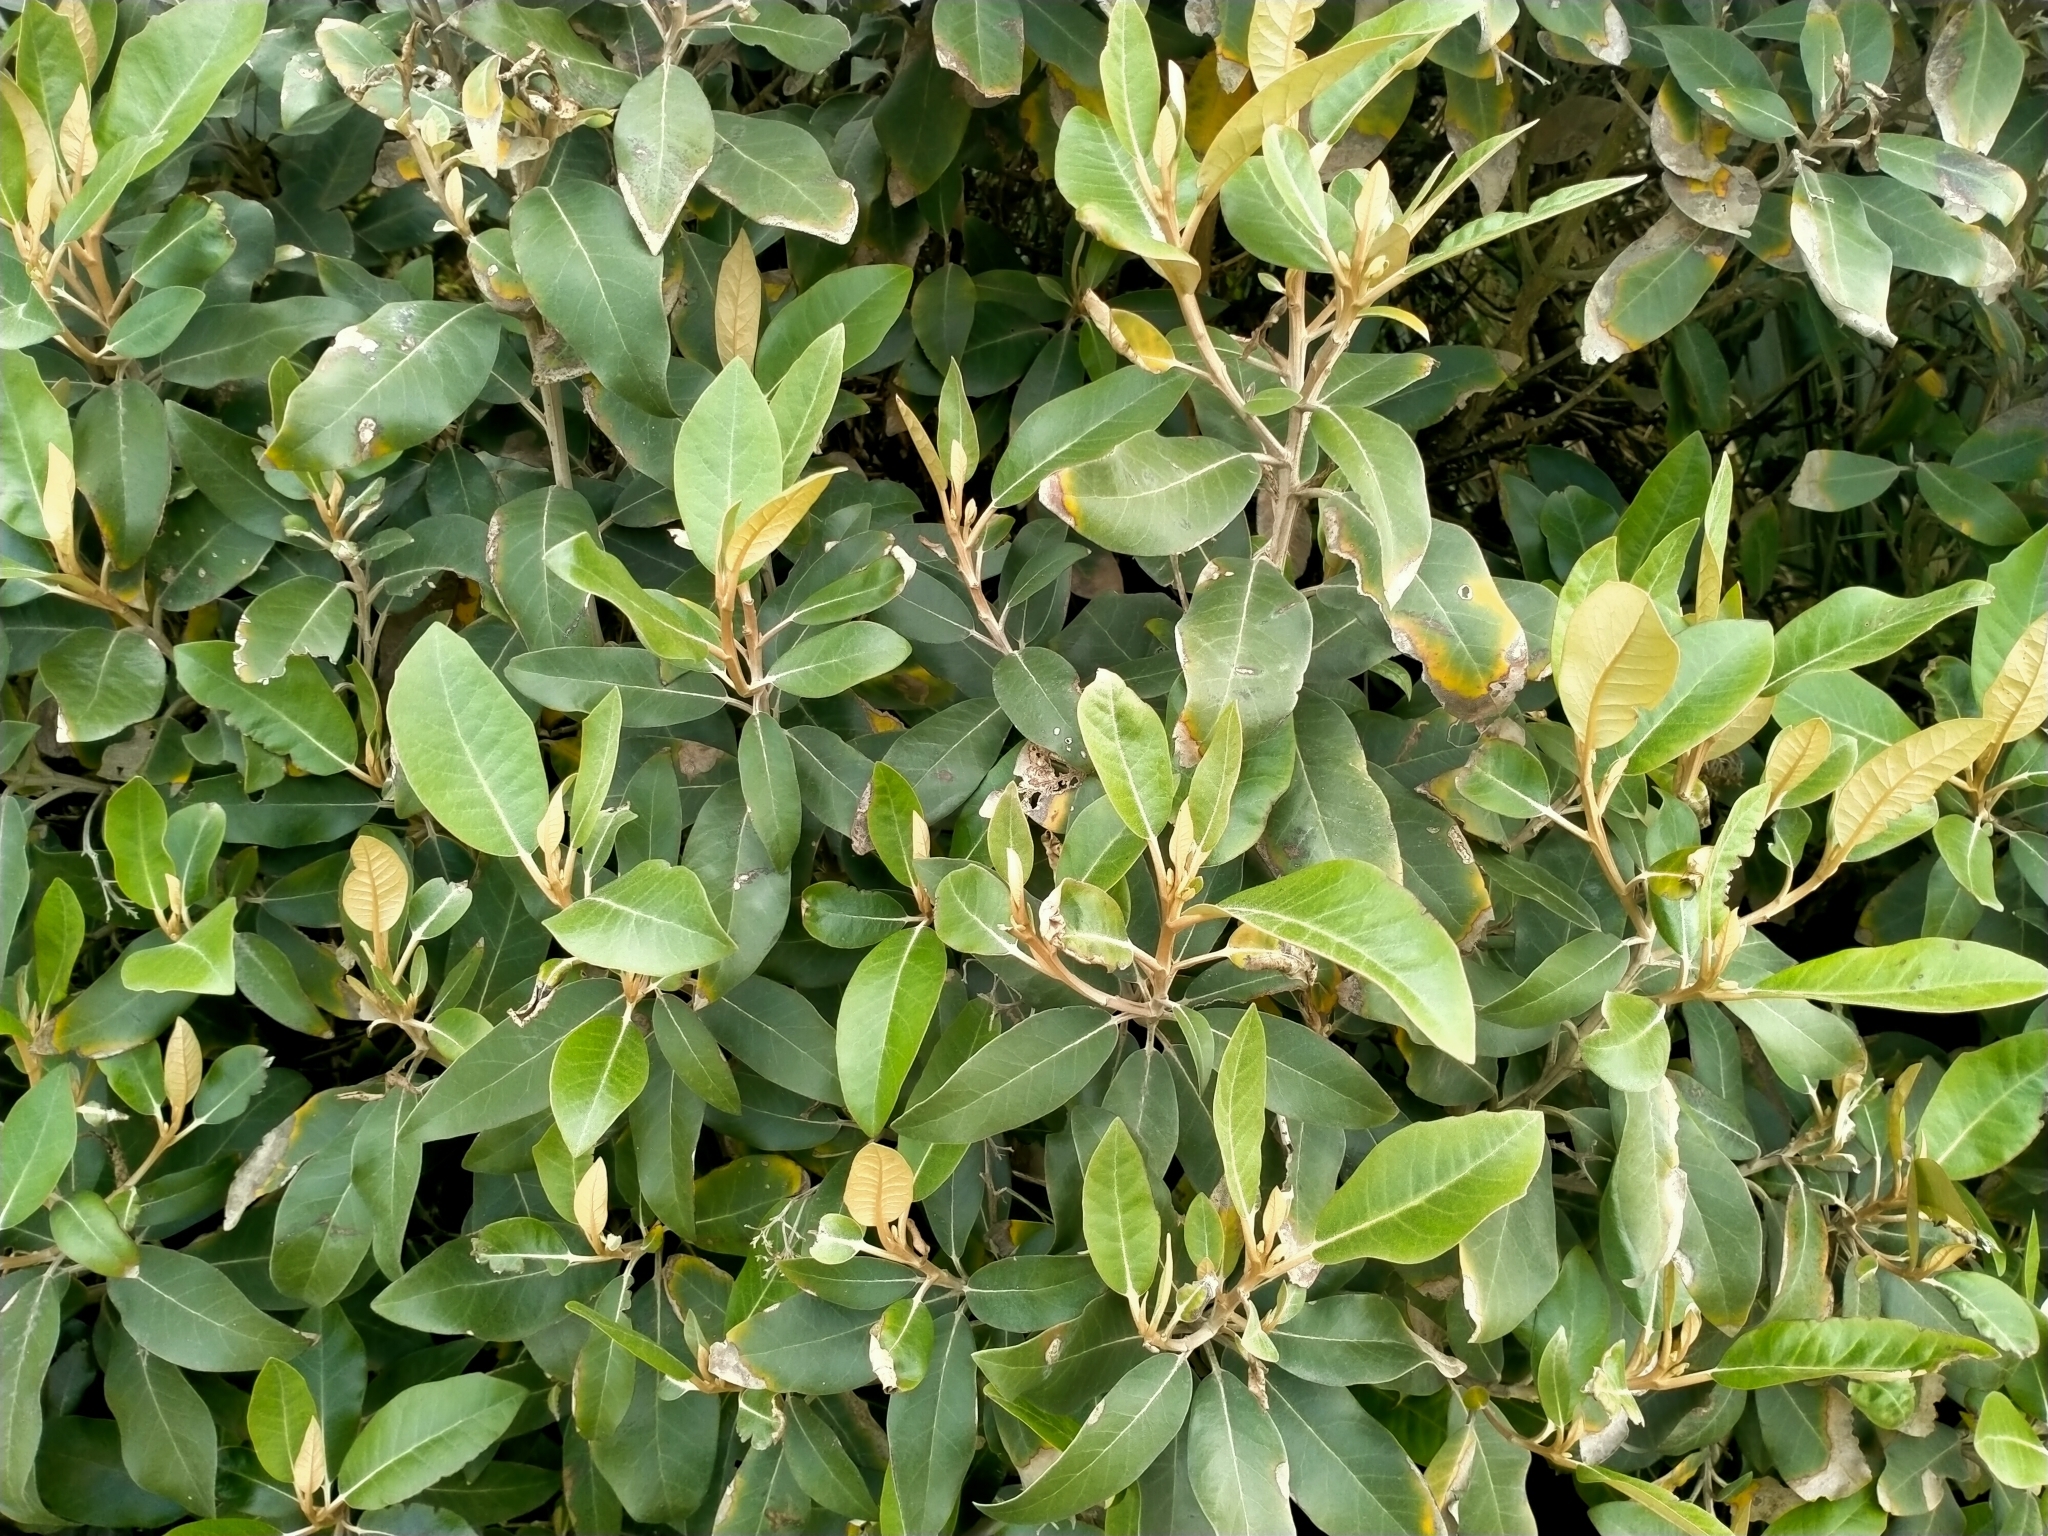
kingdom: Plantae
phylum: Tracheophyta
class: Magnoliopsida
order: Asterales
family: Asteraceae
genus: Olearia
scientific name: Olearia avicenniifolia
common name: Mangrove-leaf daisybush
